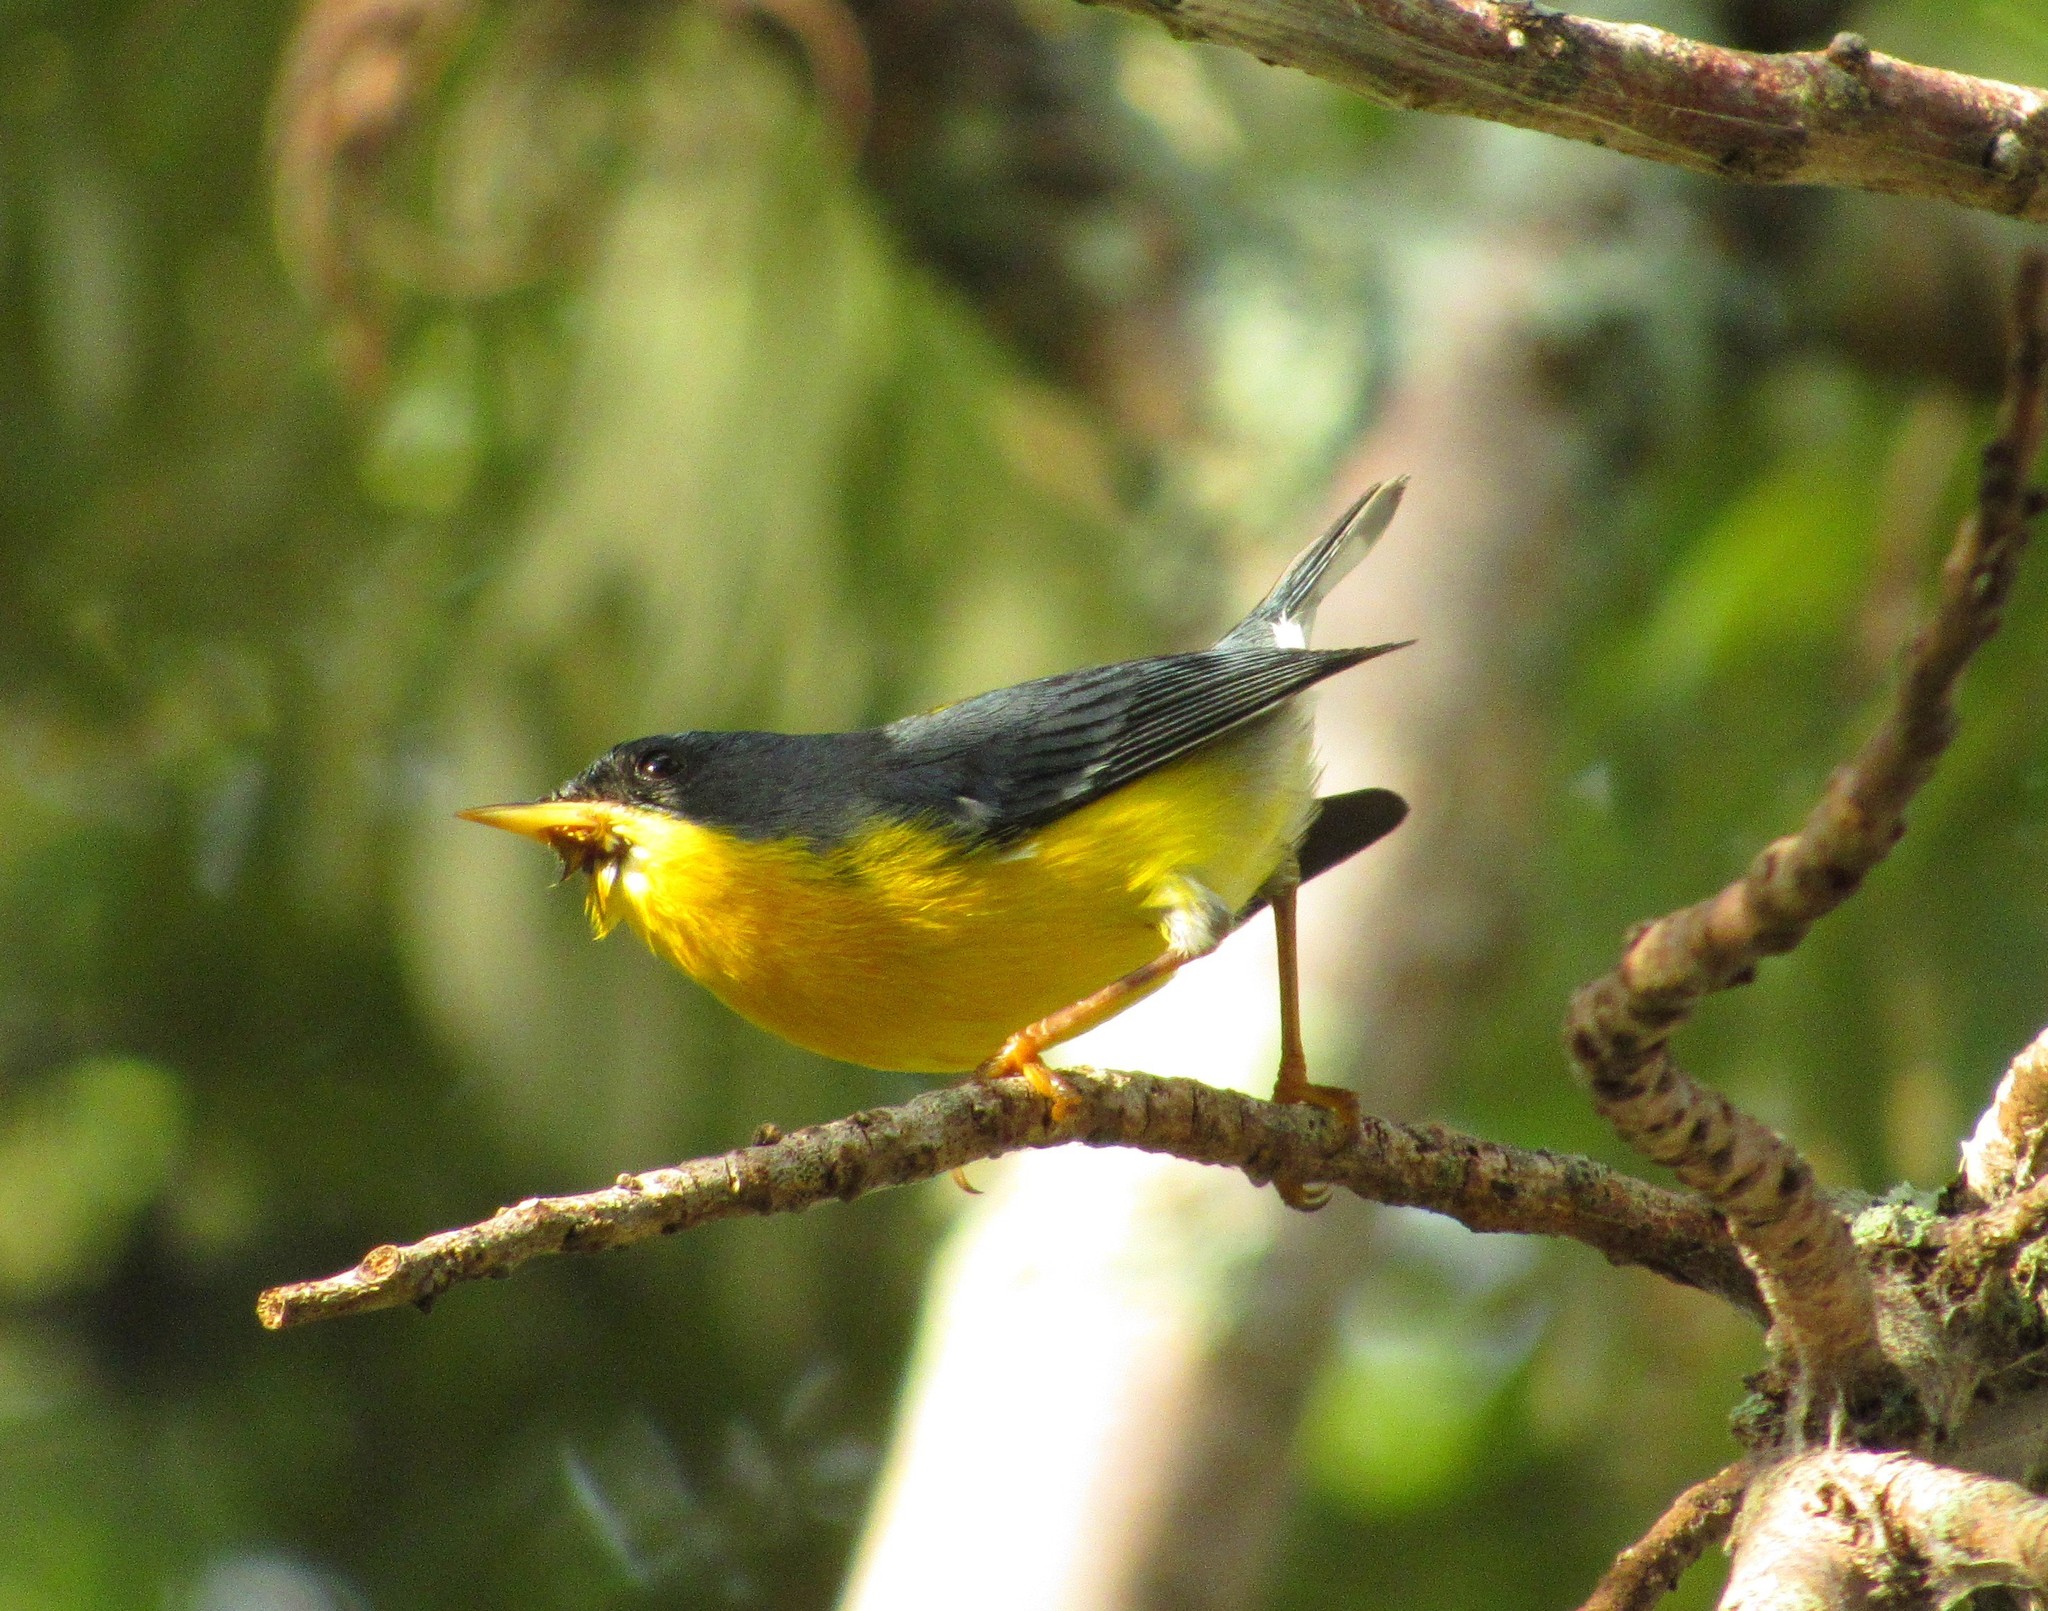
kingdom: Animalia
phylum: Chordata
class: Aves
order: Passeriformes
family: Parulidae
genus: Setophaga
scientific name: Setophaga pitiayumi
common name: Tropical parula
